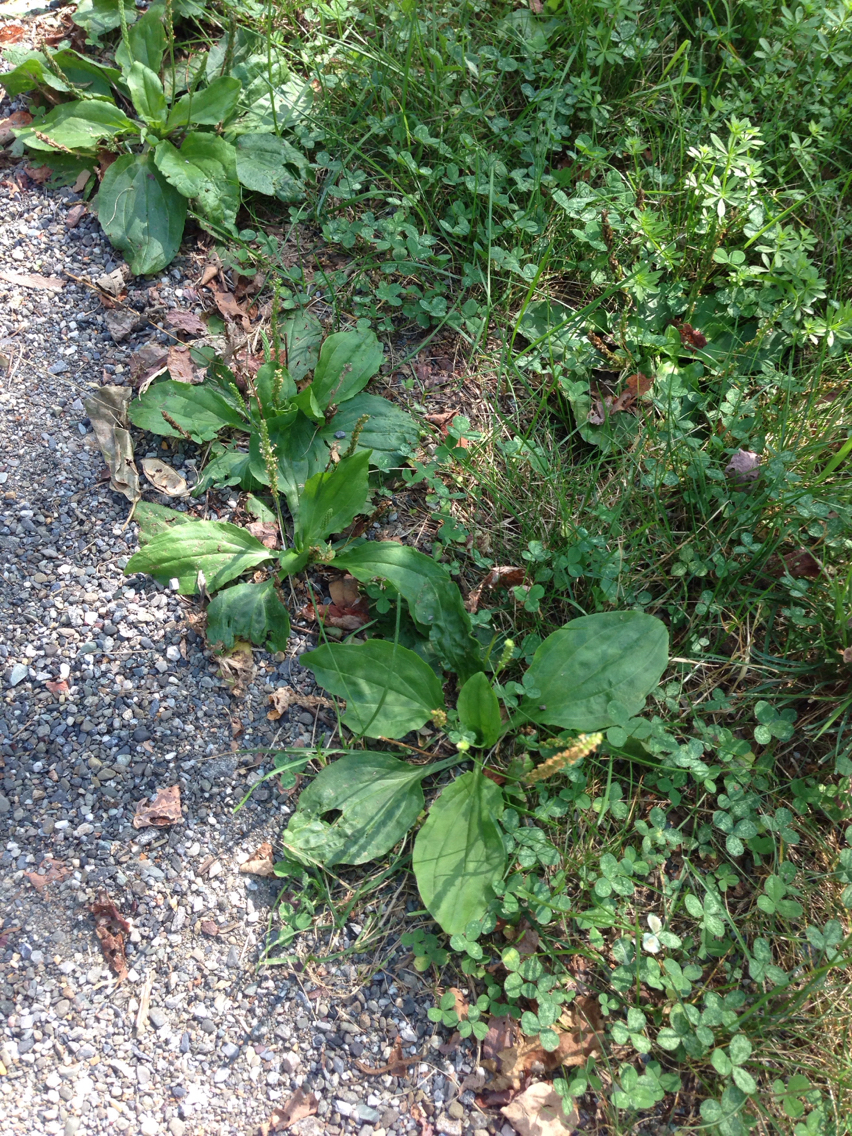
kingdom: Plantae
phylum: Tracheophyta
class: Magnoliopsida
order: Lamiales
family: Plantaginaceae
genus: Plantago
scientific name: Plantago major
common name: Common plantain
